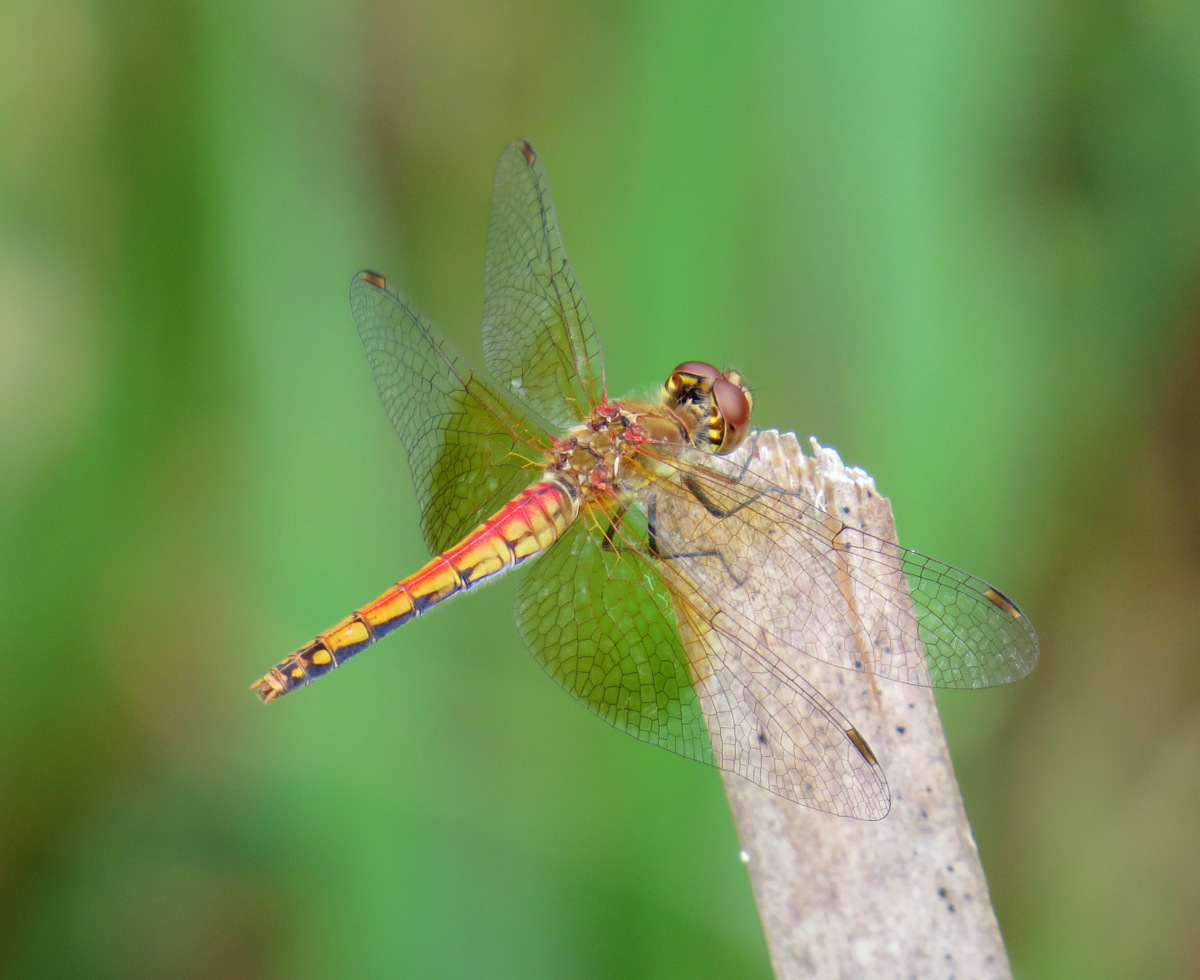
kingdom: Animalia
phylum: Arthropoda
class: Insecta
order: Odonata
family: Libellulidae
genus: Sympetrum
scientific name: Sympetrum semicinctum
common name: Band-winged meadowhawk
